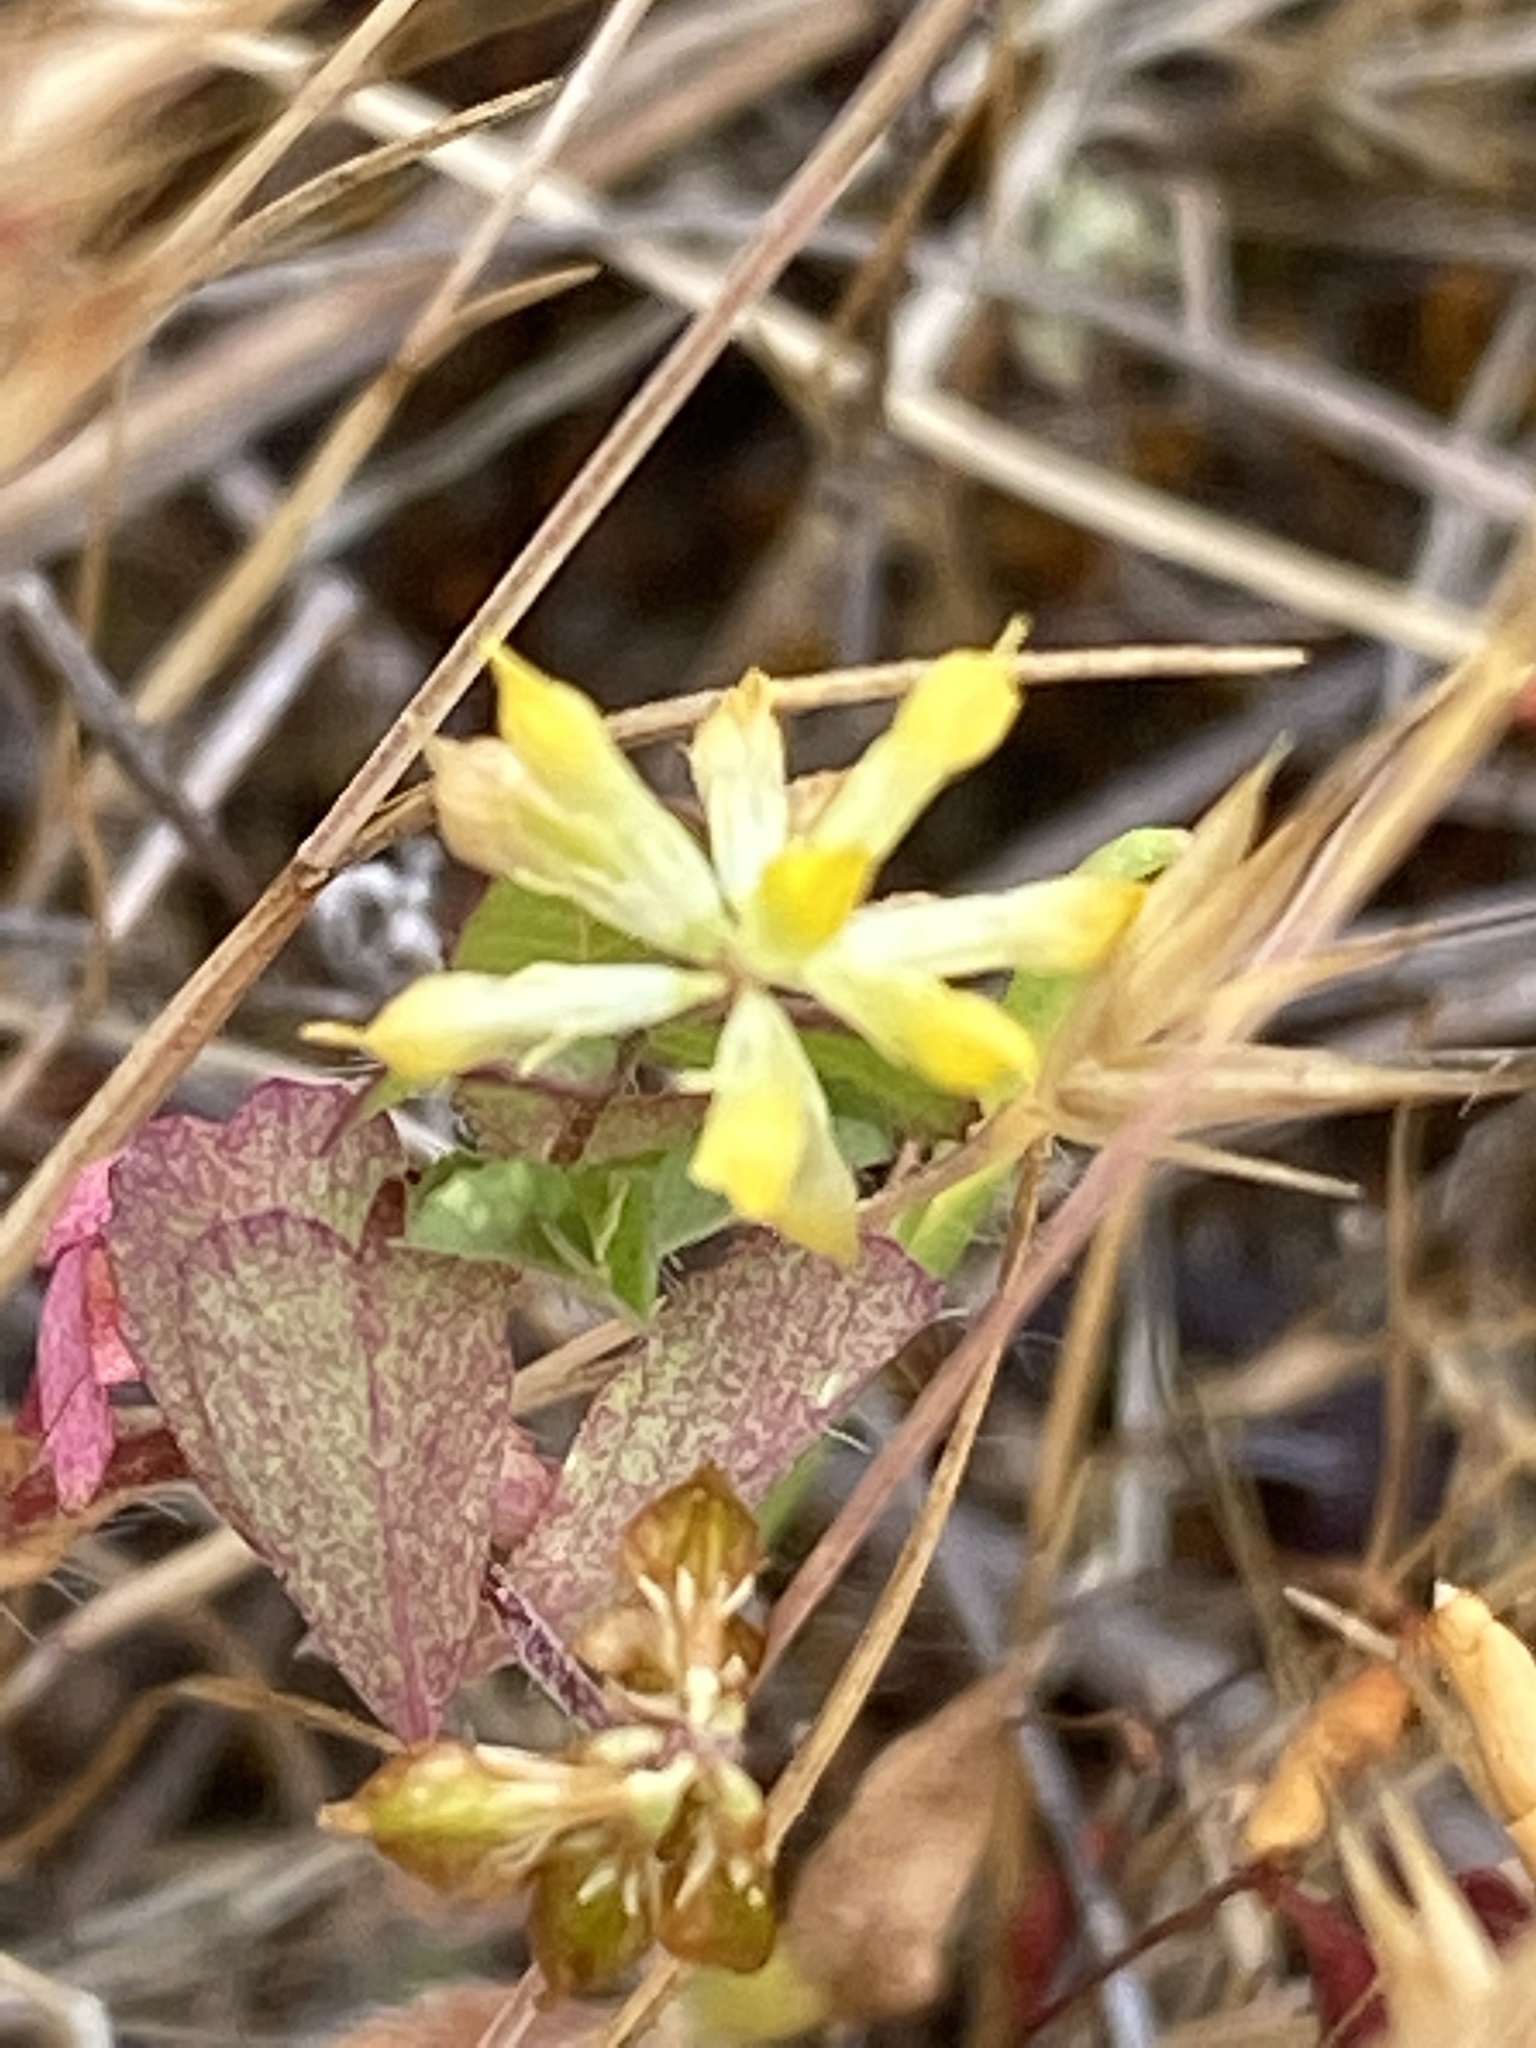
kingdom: Plantae
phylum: Tracheophyta
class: Magnoliopsida
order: Fabales
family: Fabaceae
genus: Trifolium
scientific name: Trifolium dubium
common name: Suckling clover
